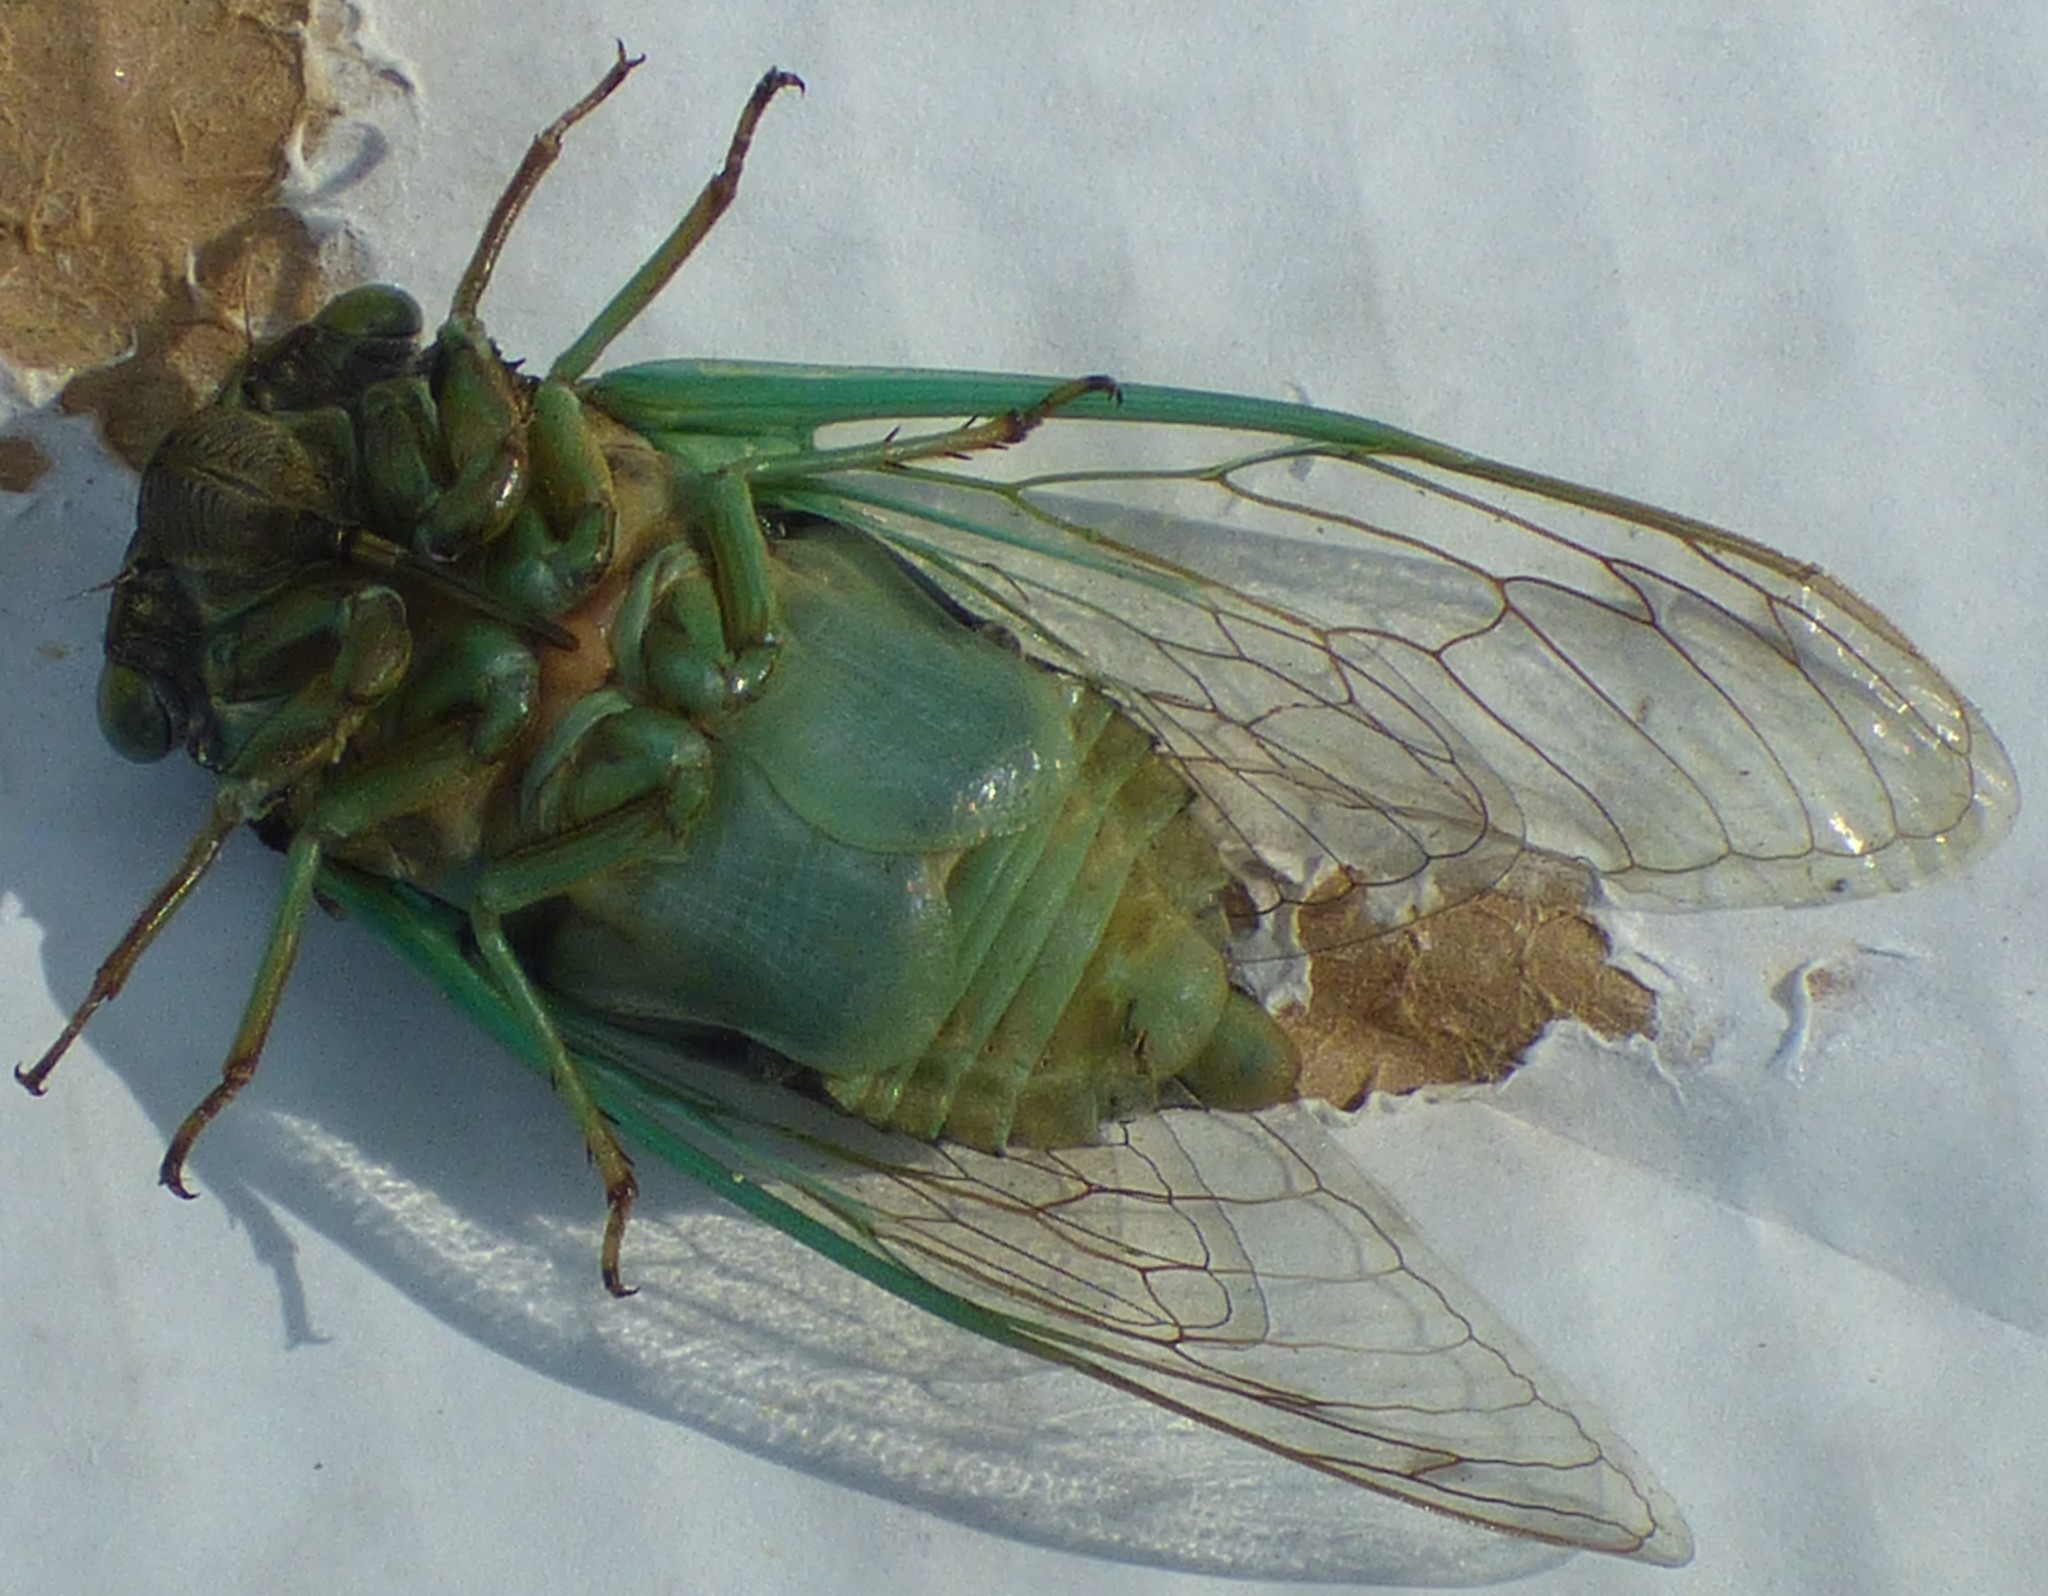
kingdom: Animalia
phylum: Arthropoda
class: Insecta
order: Hemiptera
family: Cicadidae
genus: Neotibicen
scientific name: Neotibicen tibicen
